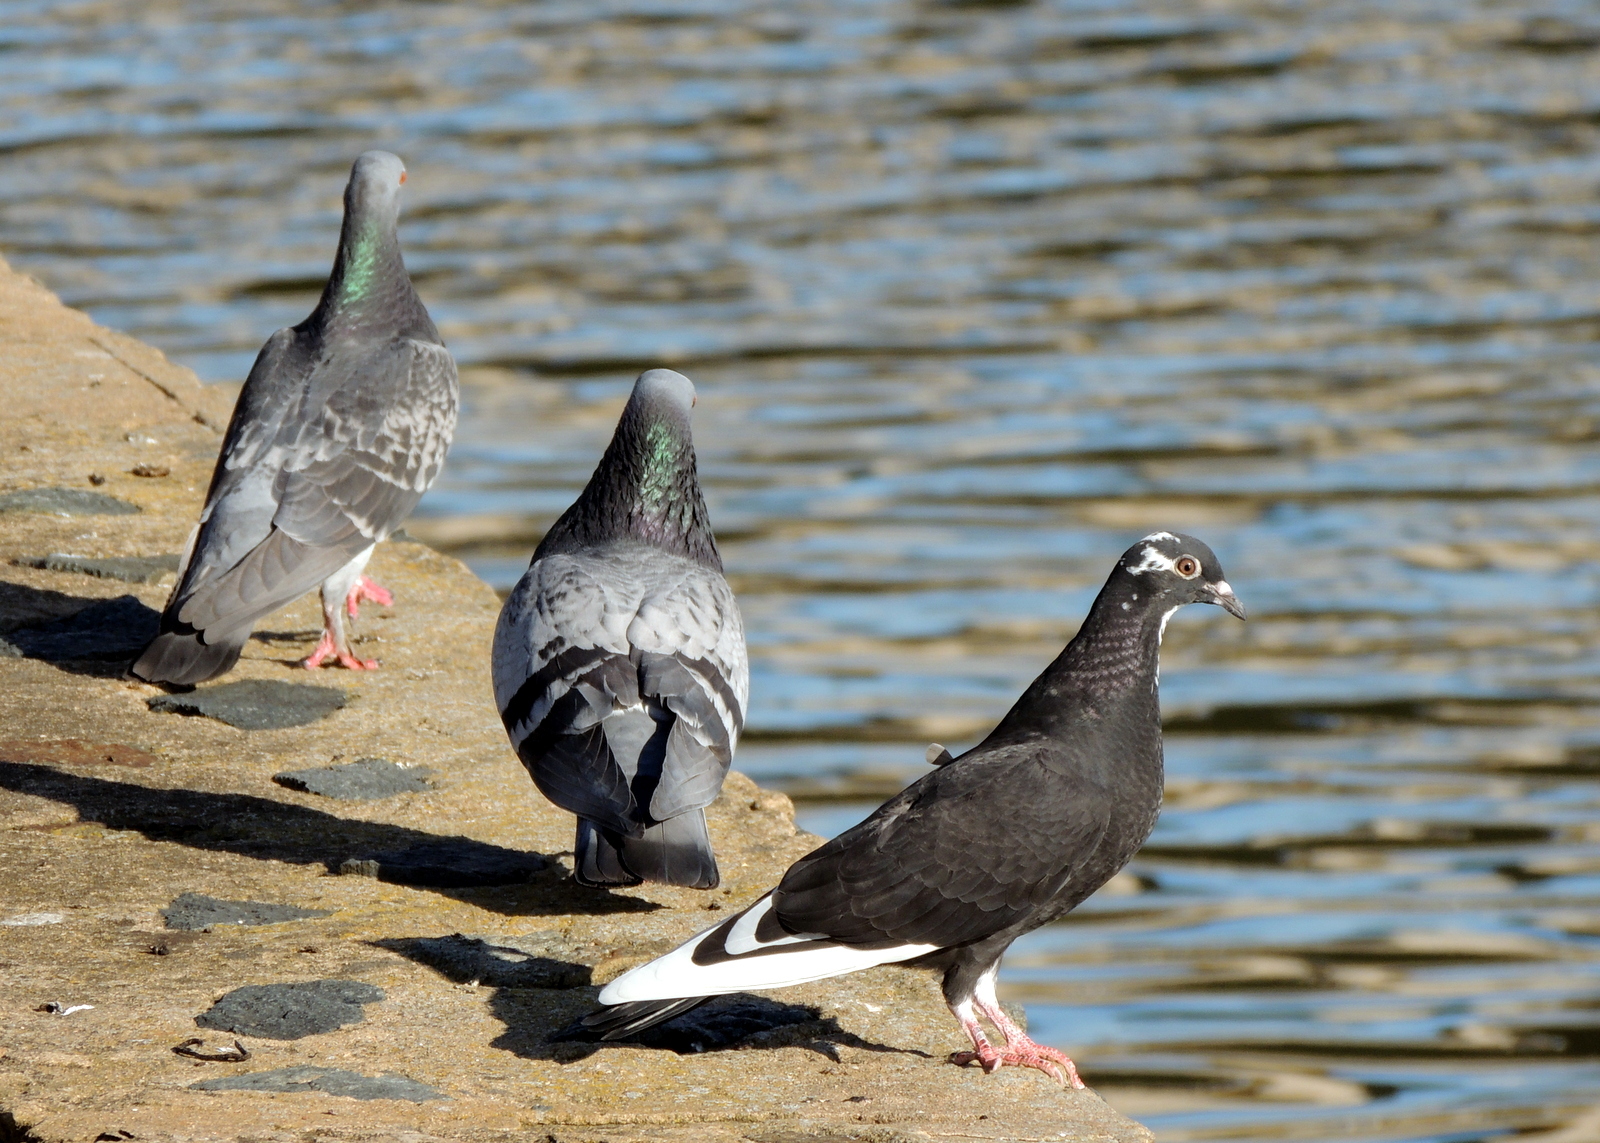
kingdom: Animalia
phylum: Chordata
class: Aves
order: Columbiformes
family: Columbidae
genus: Columba
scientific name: Columba livia
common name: Rock pigeon
